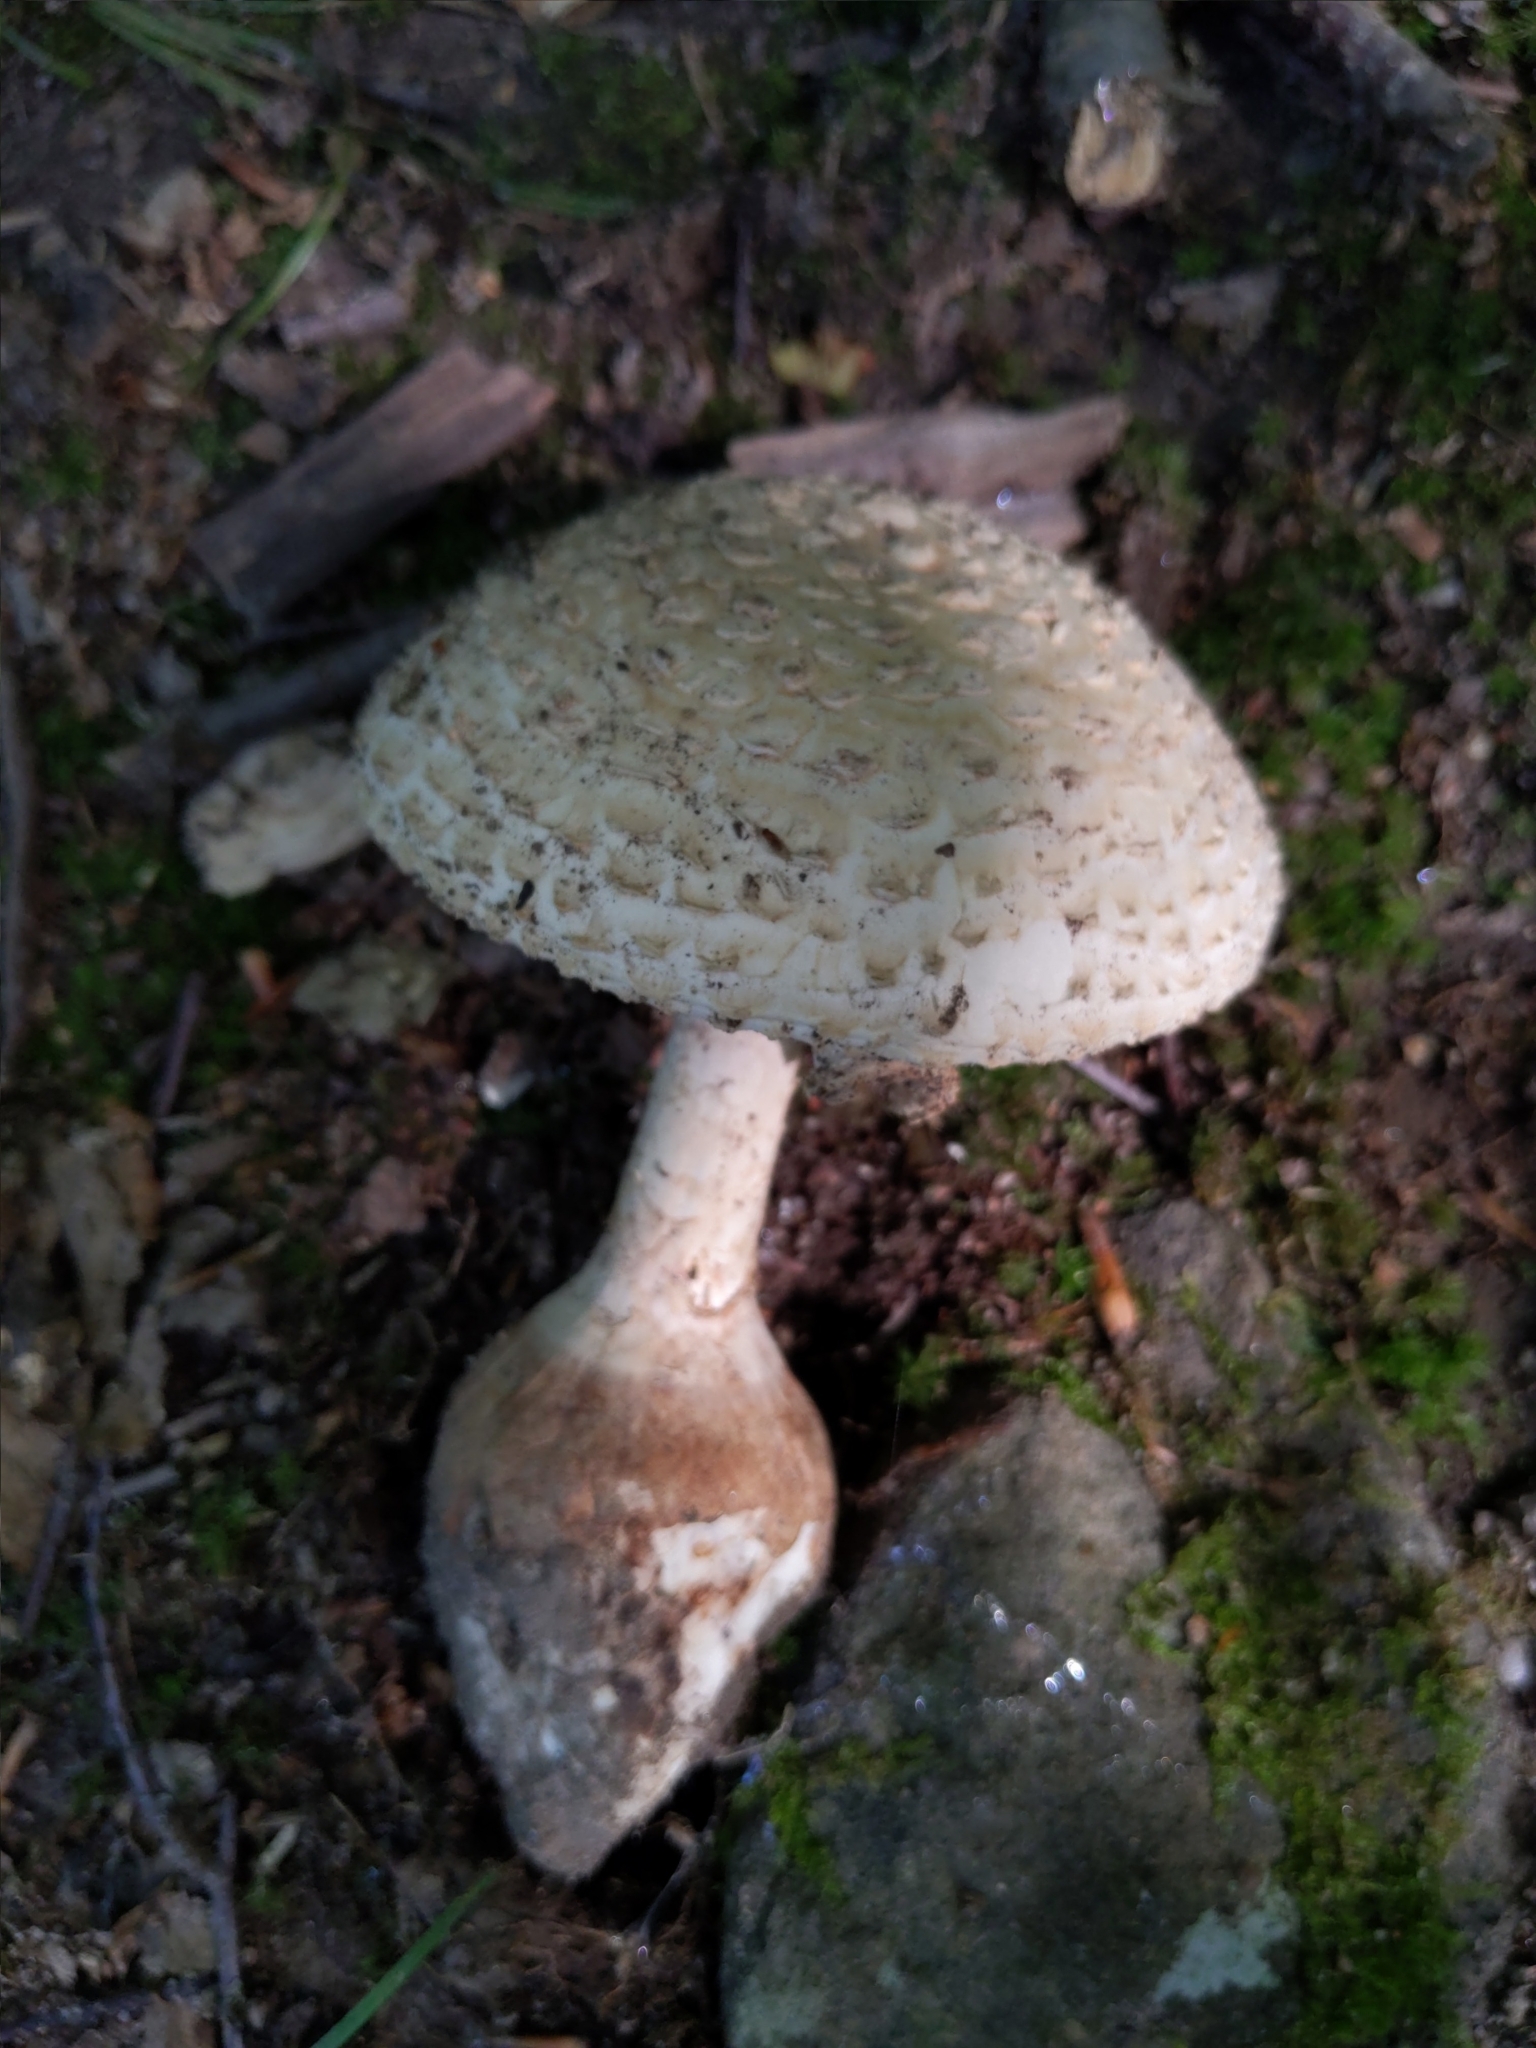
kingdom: Protozoa
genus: Lepidella
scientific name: Lepidella
